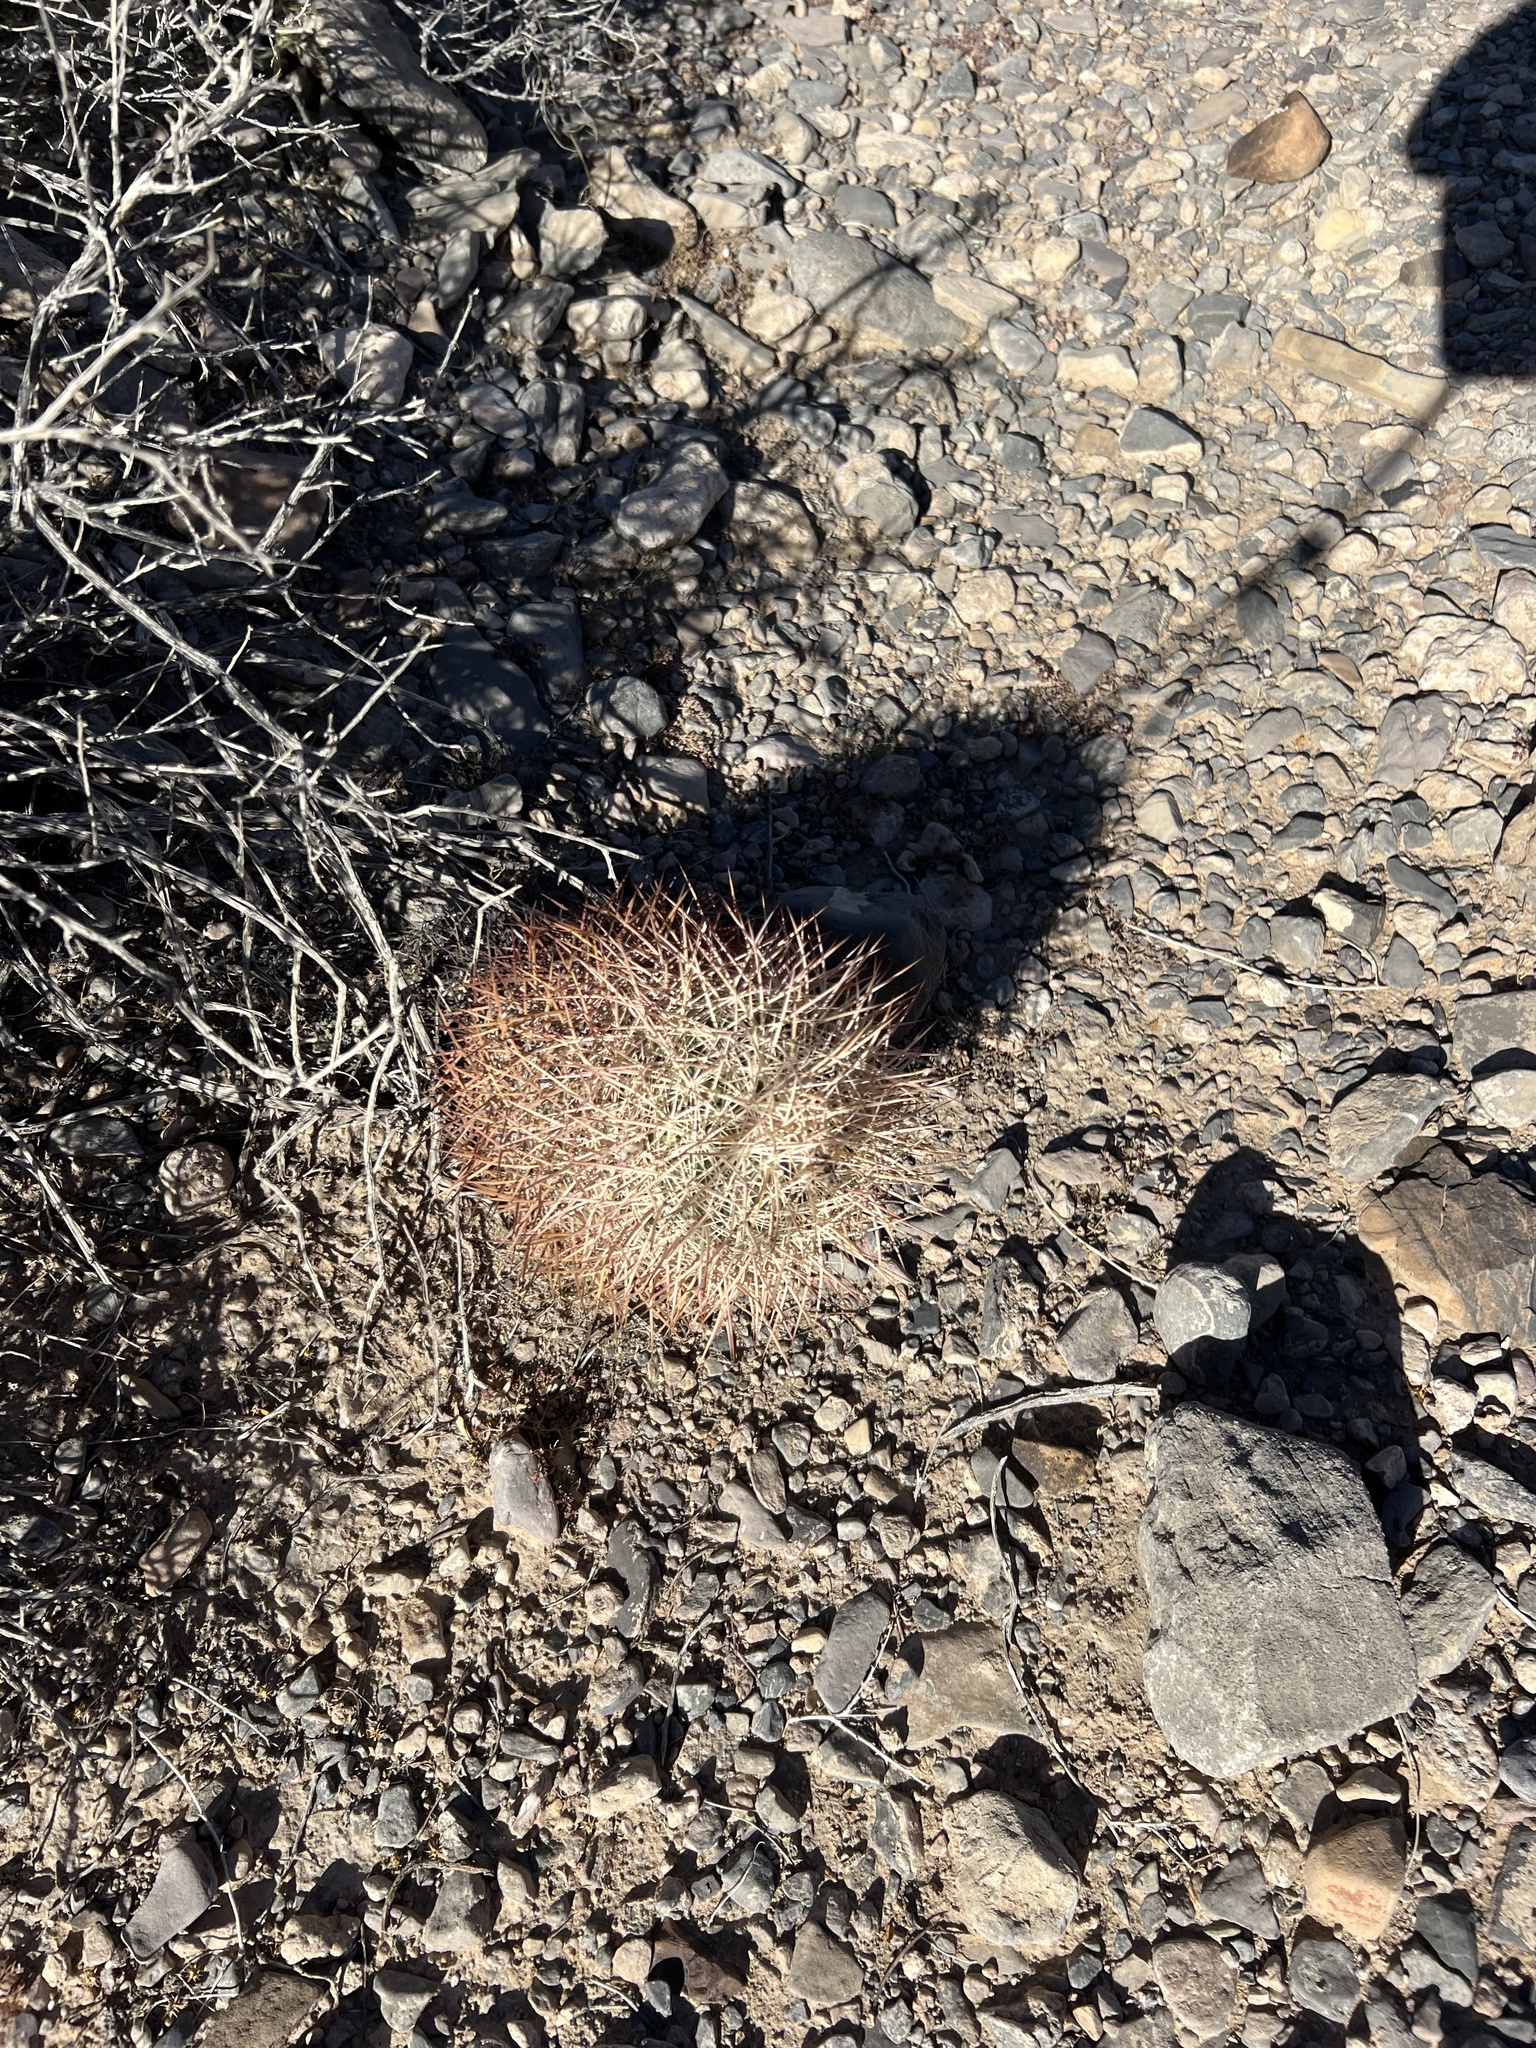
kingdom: Plantae
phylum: Tracheophyta
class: Magnoliopsida
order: Caryophyllales
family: Cactaceae
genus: Sclerocactus
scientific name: Sclerocactus johnsonii
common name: Eight-spine fishhook cactus
